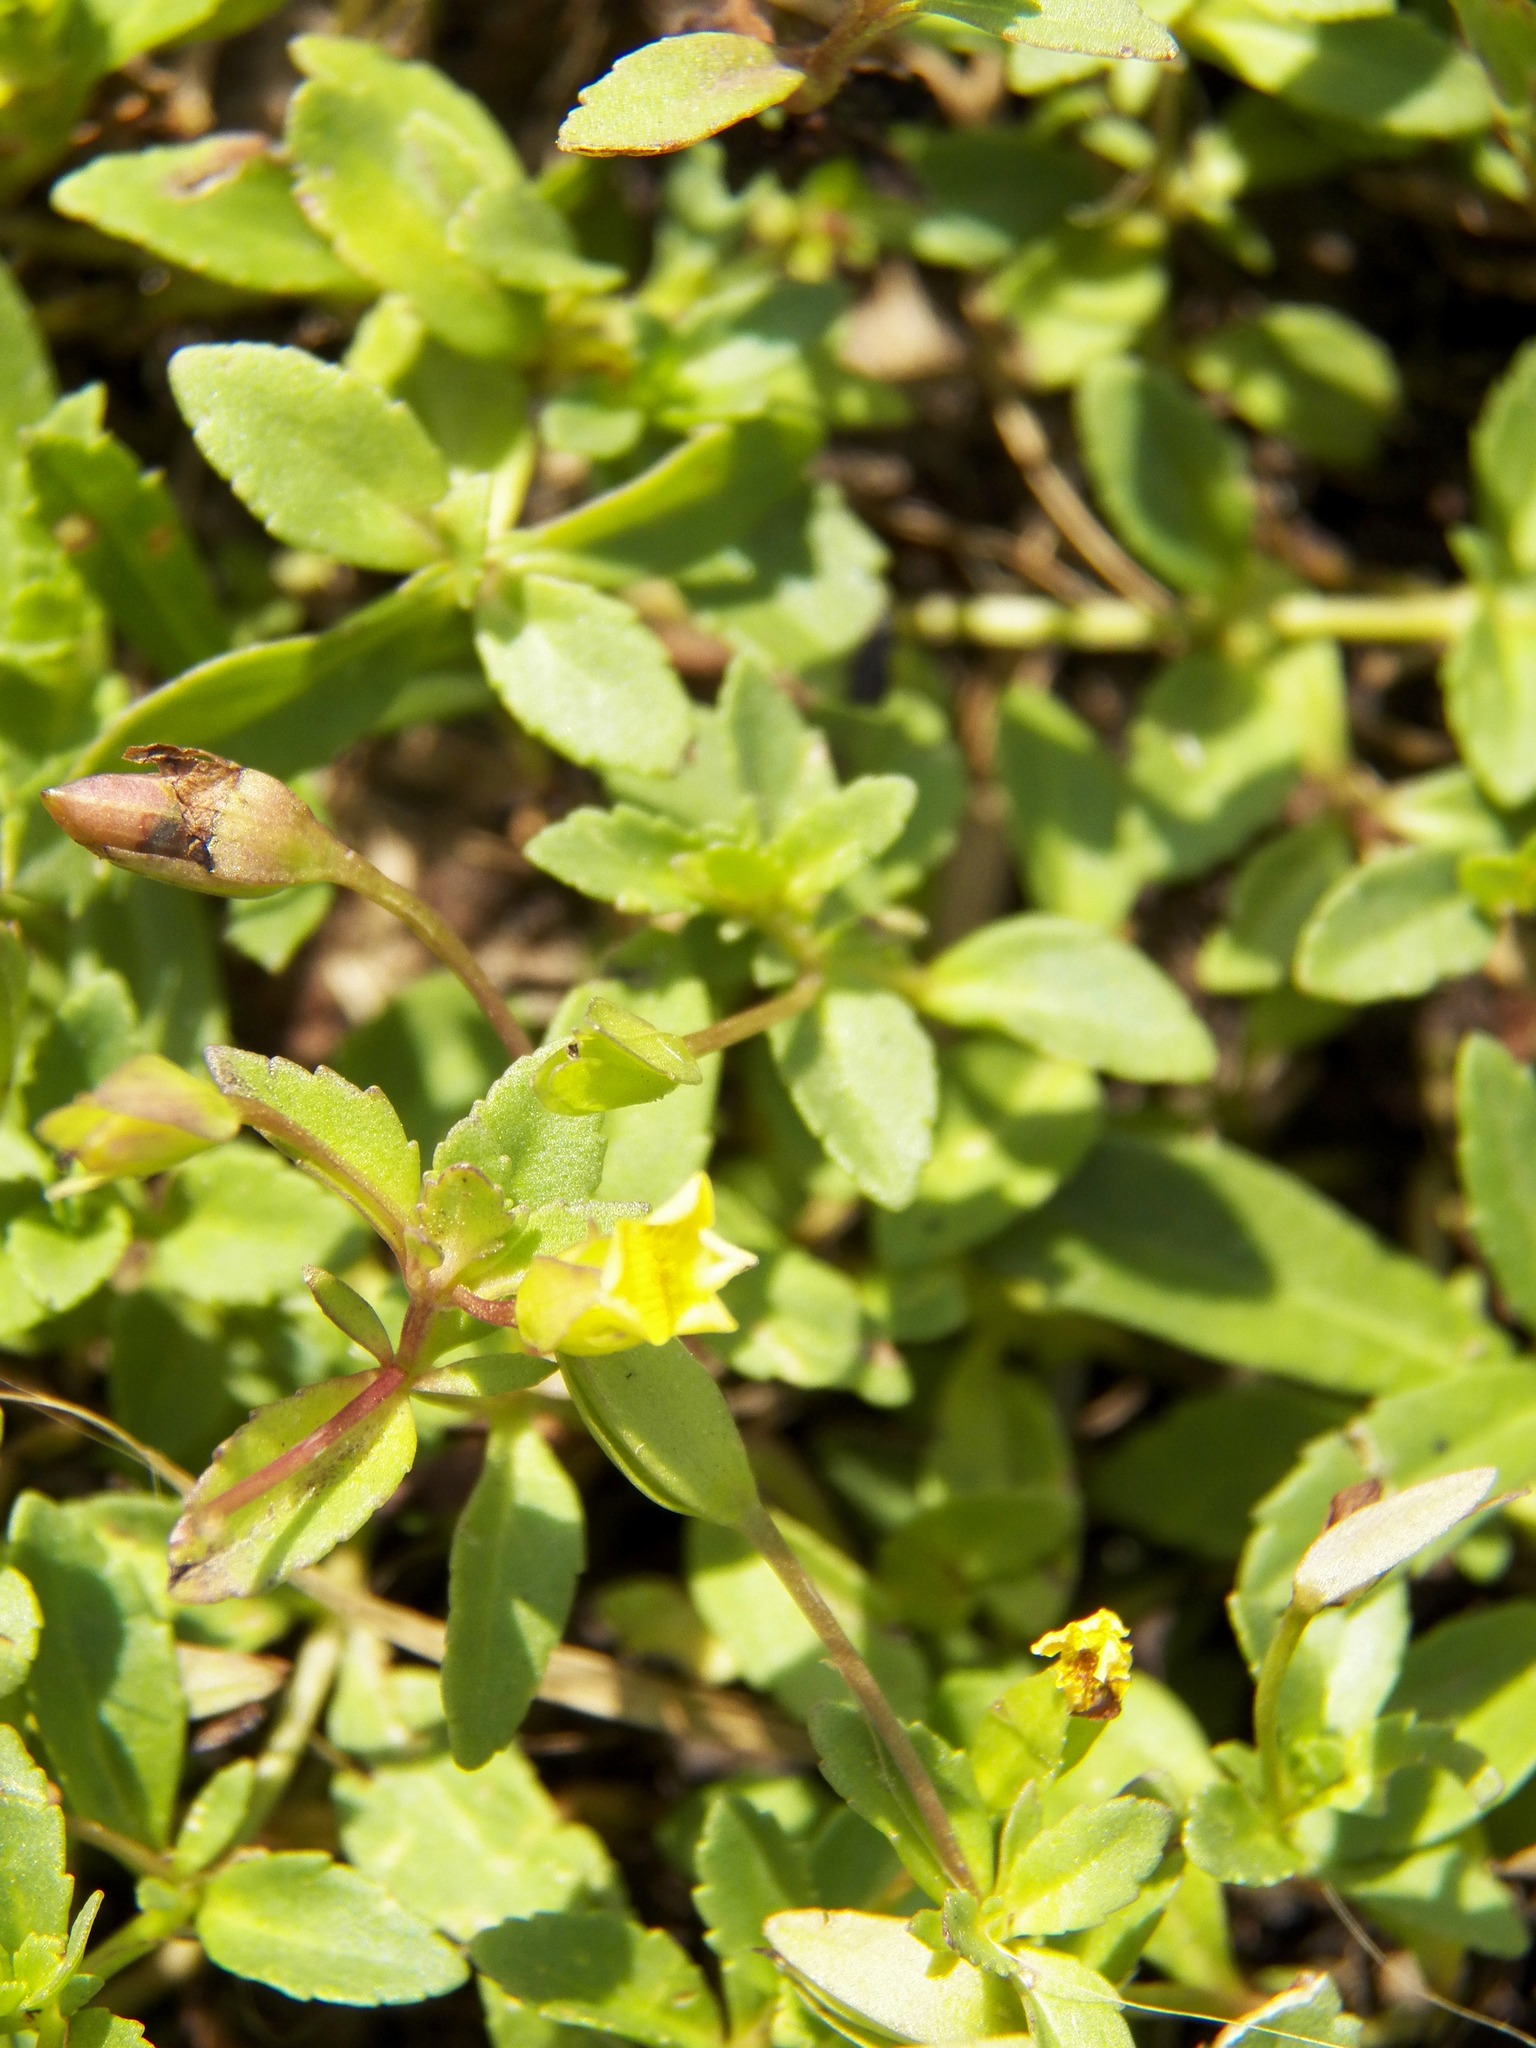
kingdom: Plantae
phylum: Tracheophyta
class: Magnoliopsida
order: Lamiales
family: Plantaginaceae
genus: Mecardonia
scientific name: Mecardonia procumbens
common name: Baby jump-up
